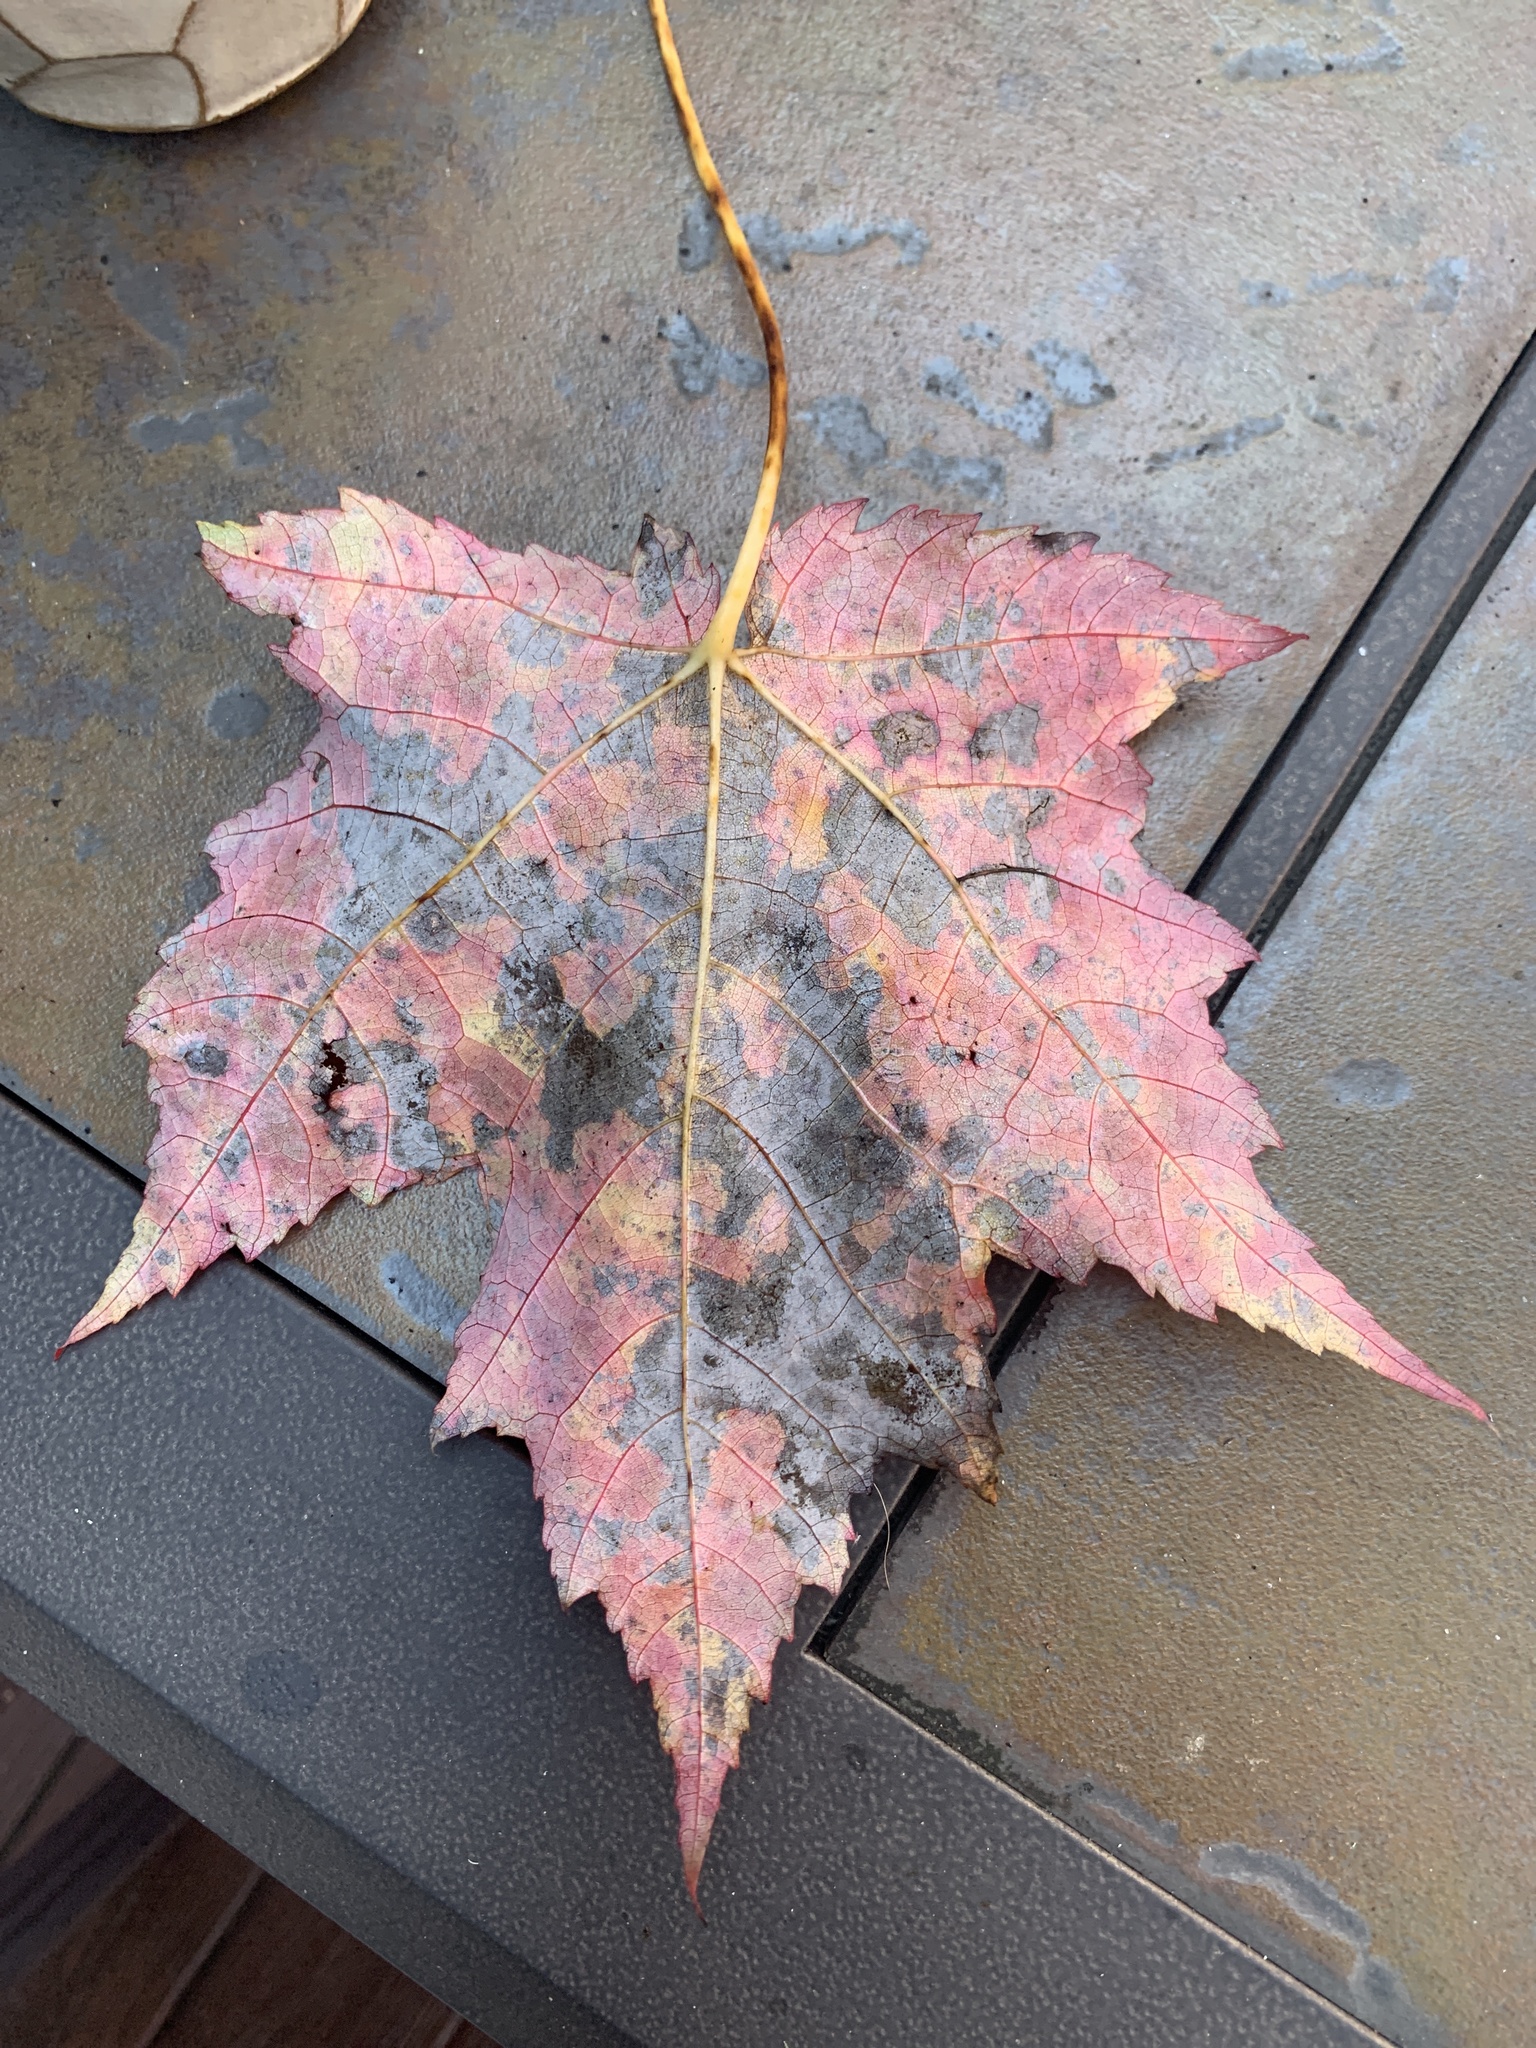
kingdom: Plantae
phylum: Tracheophyta
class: Magnoliopsida
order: Sapindales
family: Sapindaceae
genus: Acer
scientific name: Acer rubrum
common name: Red maple
